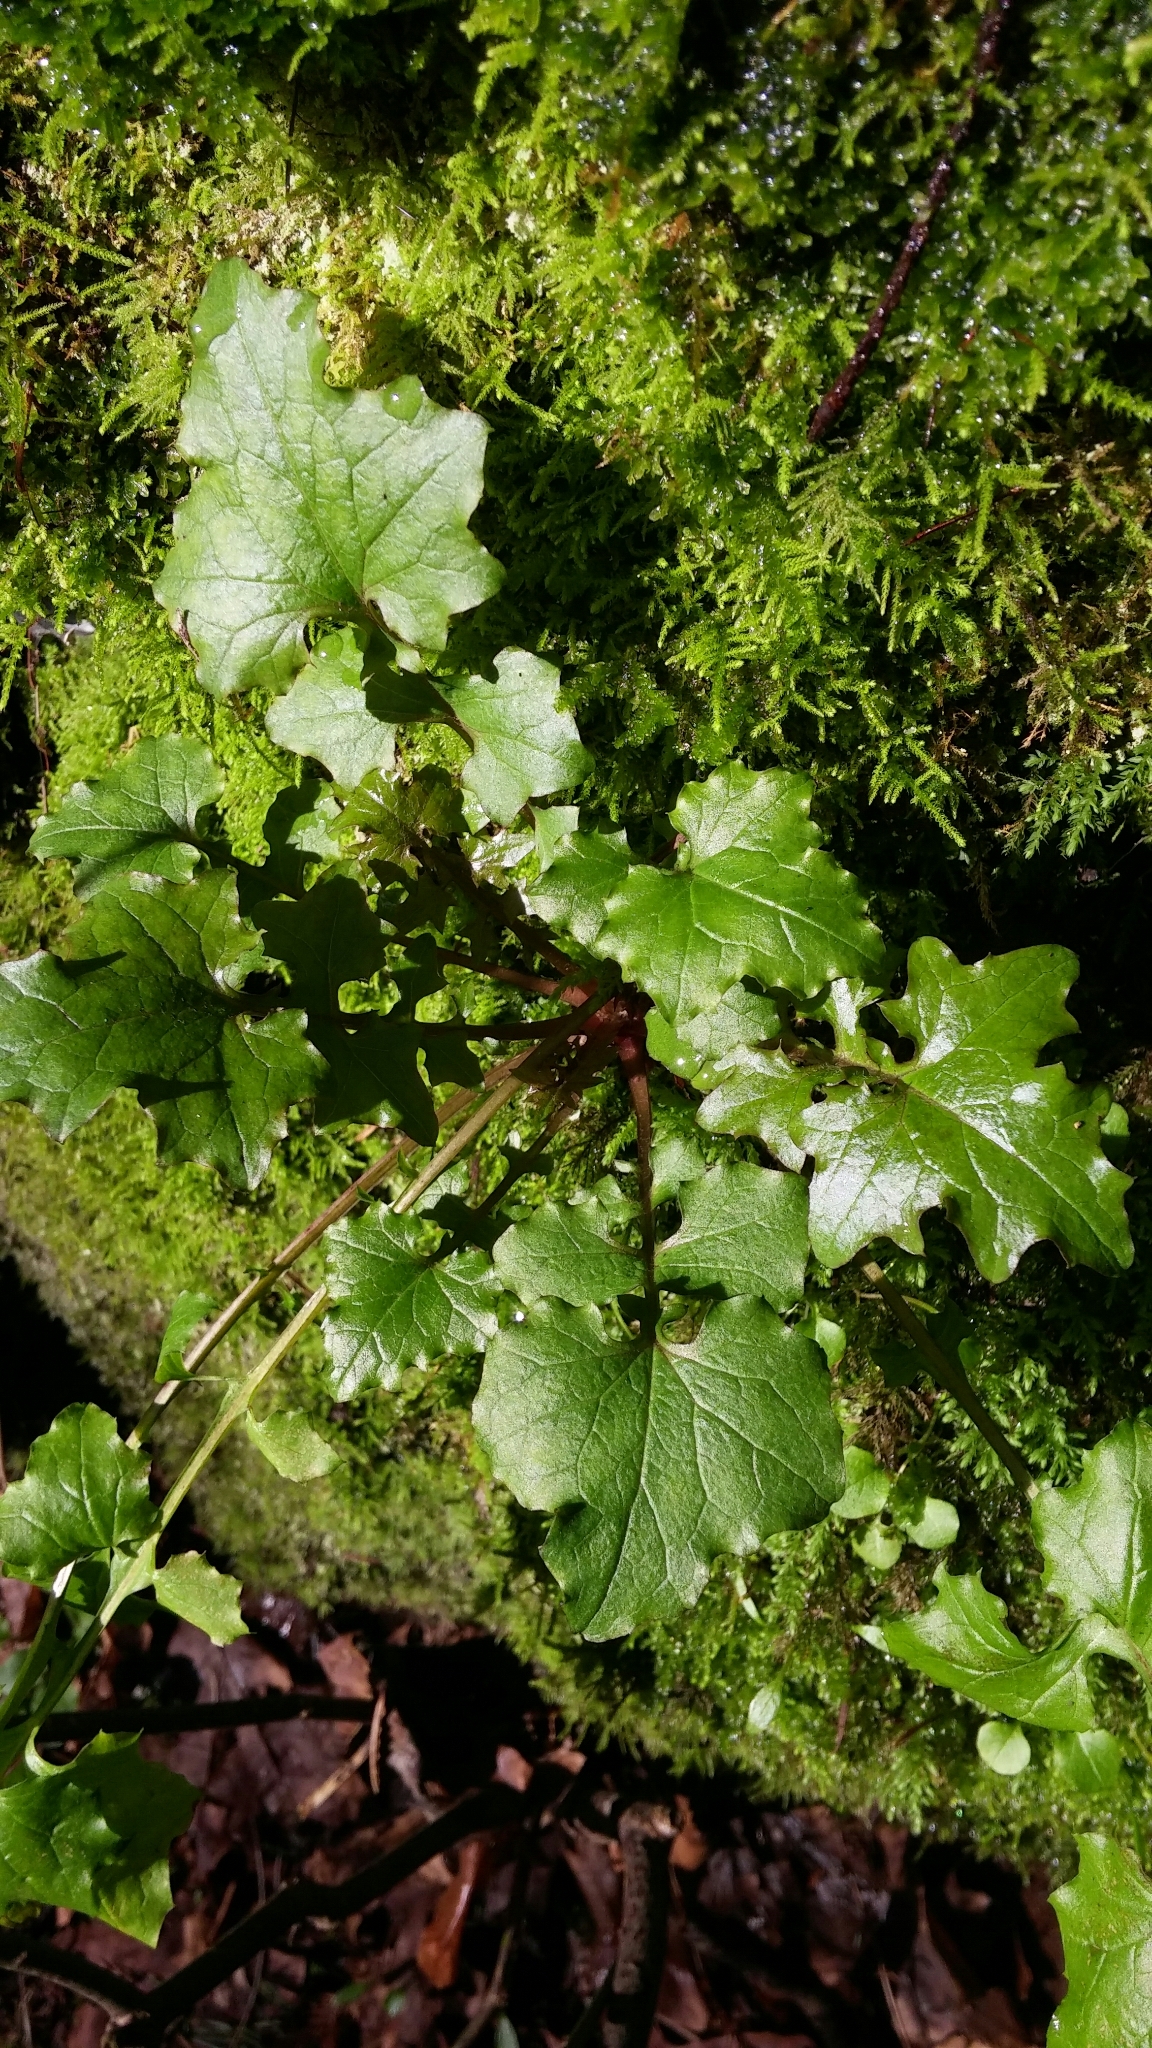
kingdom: Plantae
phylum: Tracheophyta
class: Magnoliopsida
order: Asterales
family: Asteraceae
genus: Mycelis
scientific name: Mycelis muralis
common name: Wall lettuce
